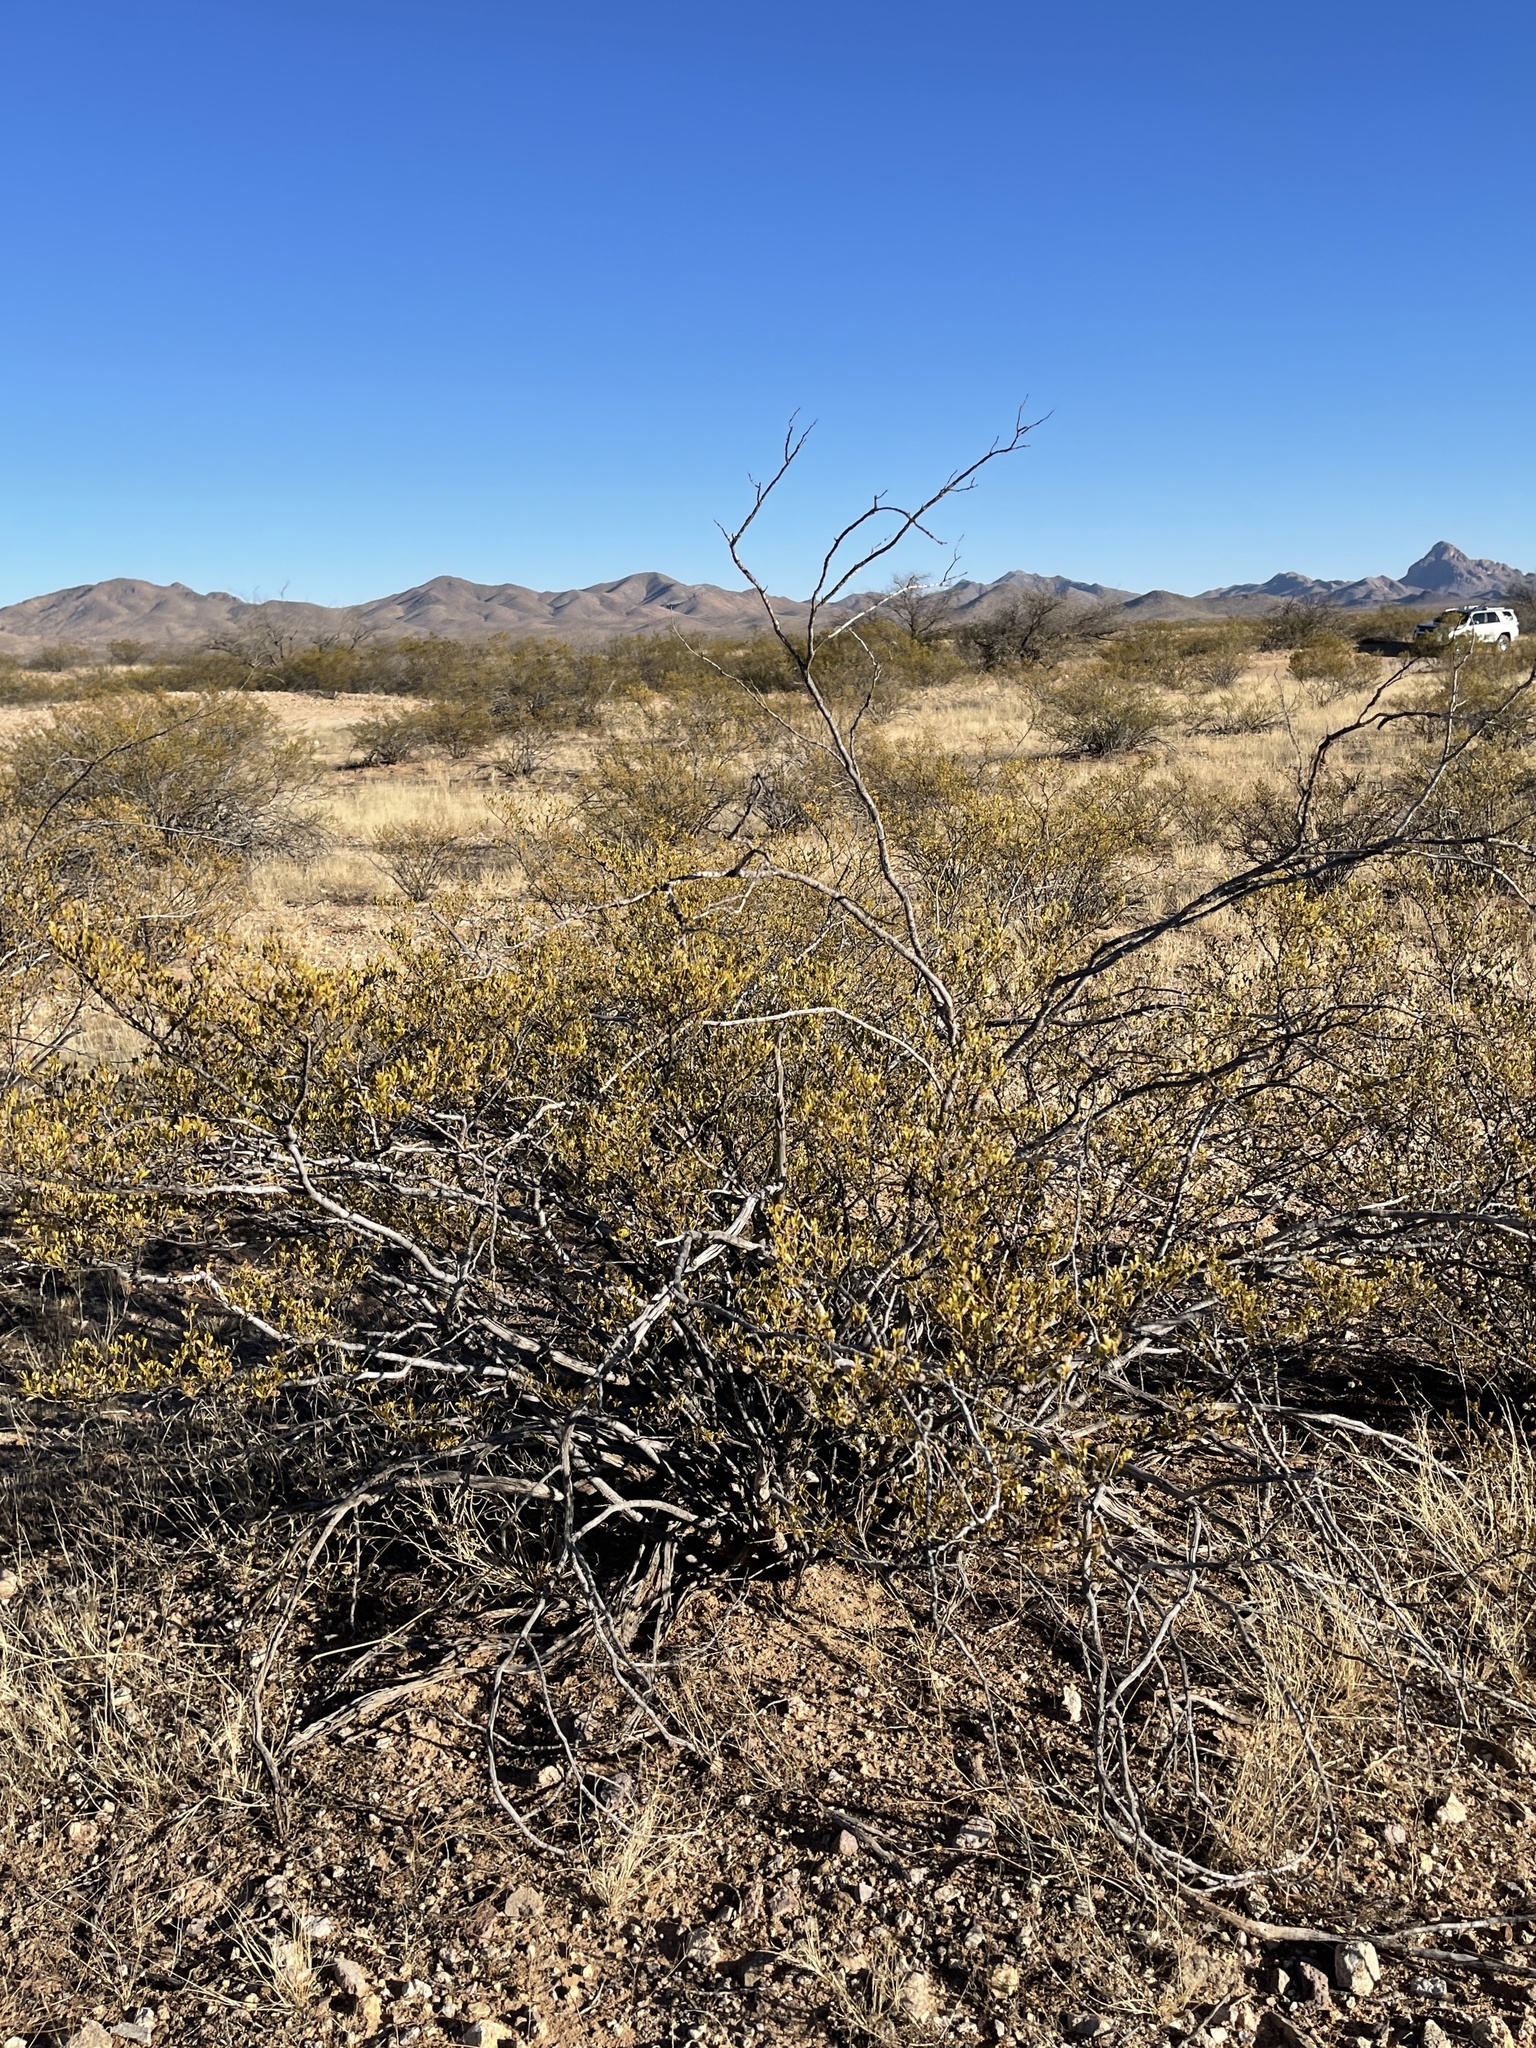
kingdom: Plantae
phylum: Tracheophyta
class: Magnoliopsida
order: Zygophyllales
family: Zygophyllaceae
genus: Larrea
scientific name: Larrea tridentata
